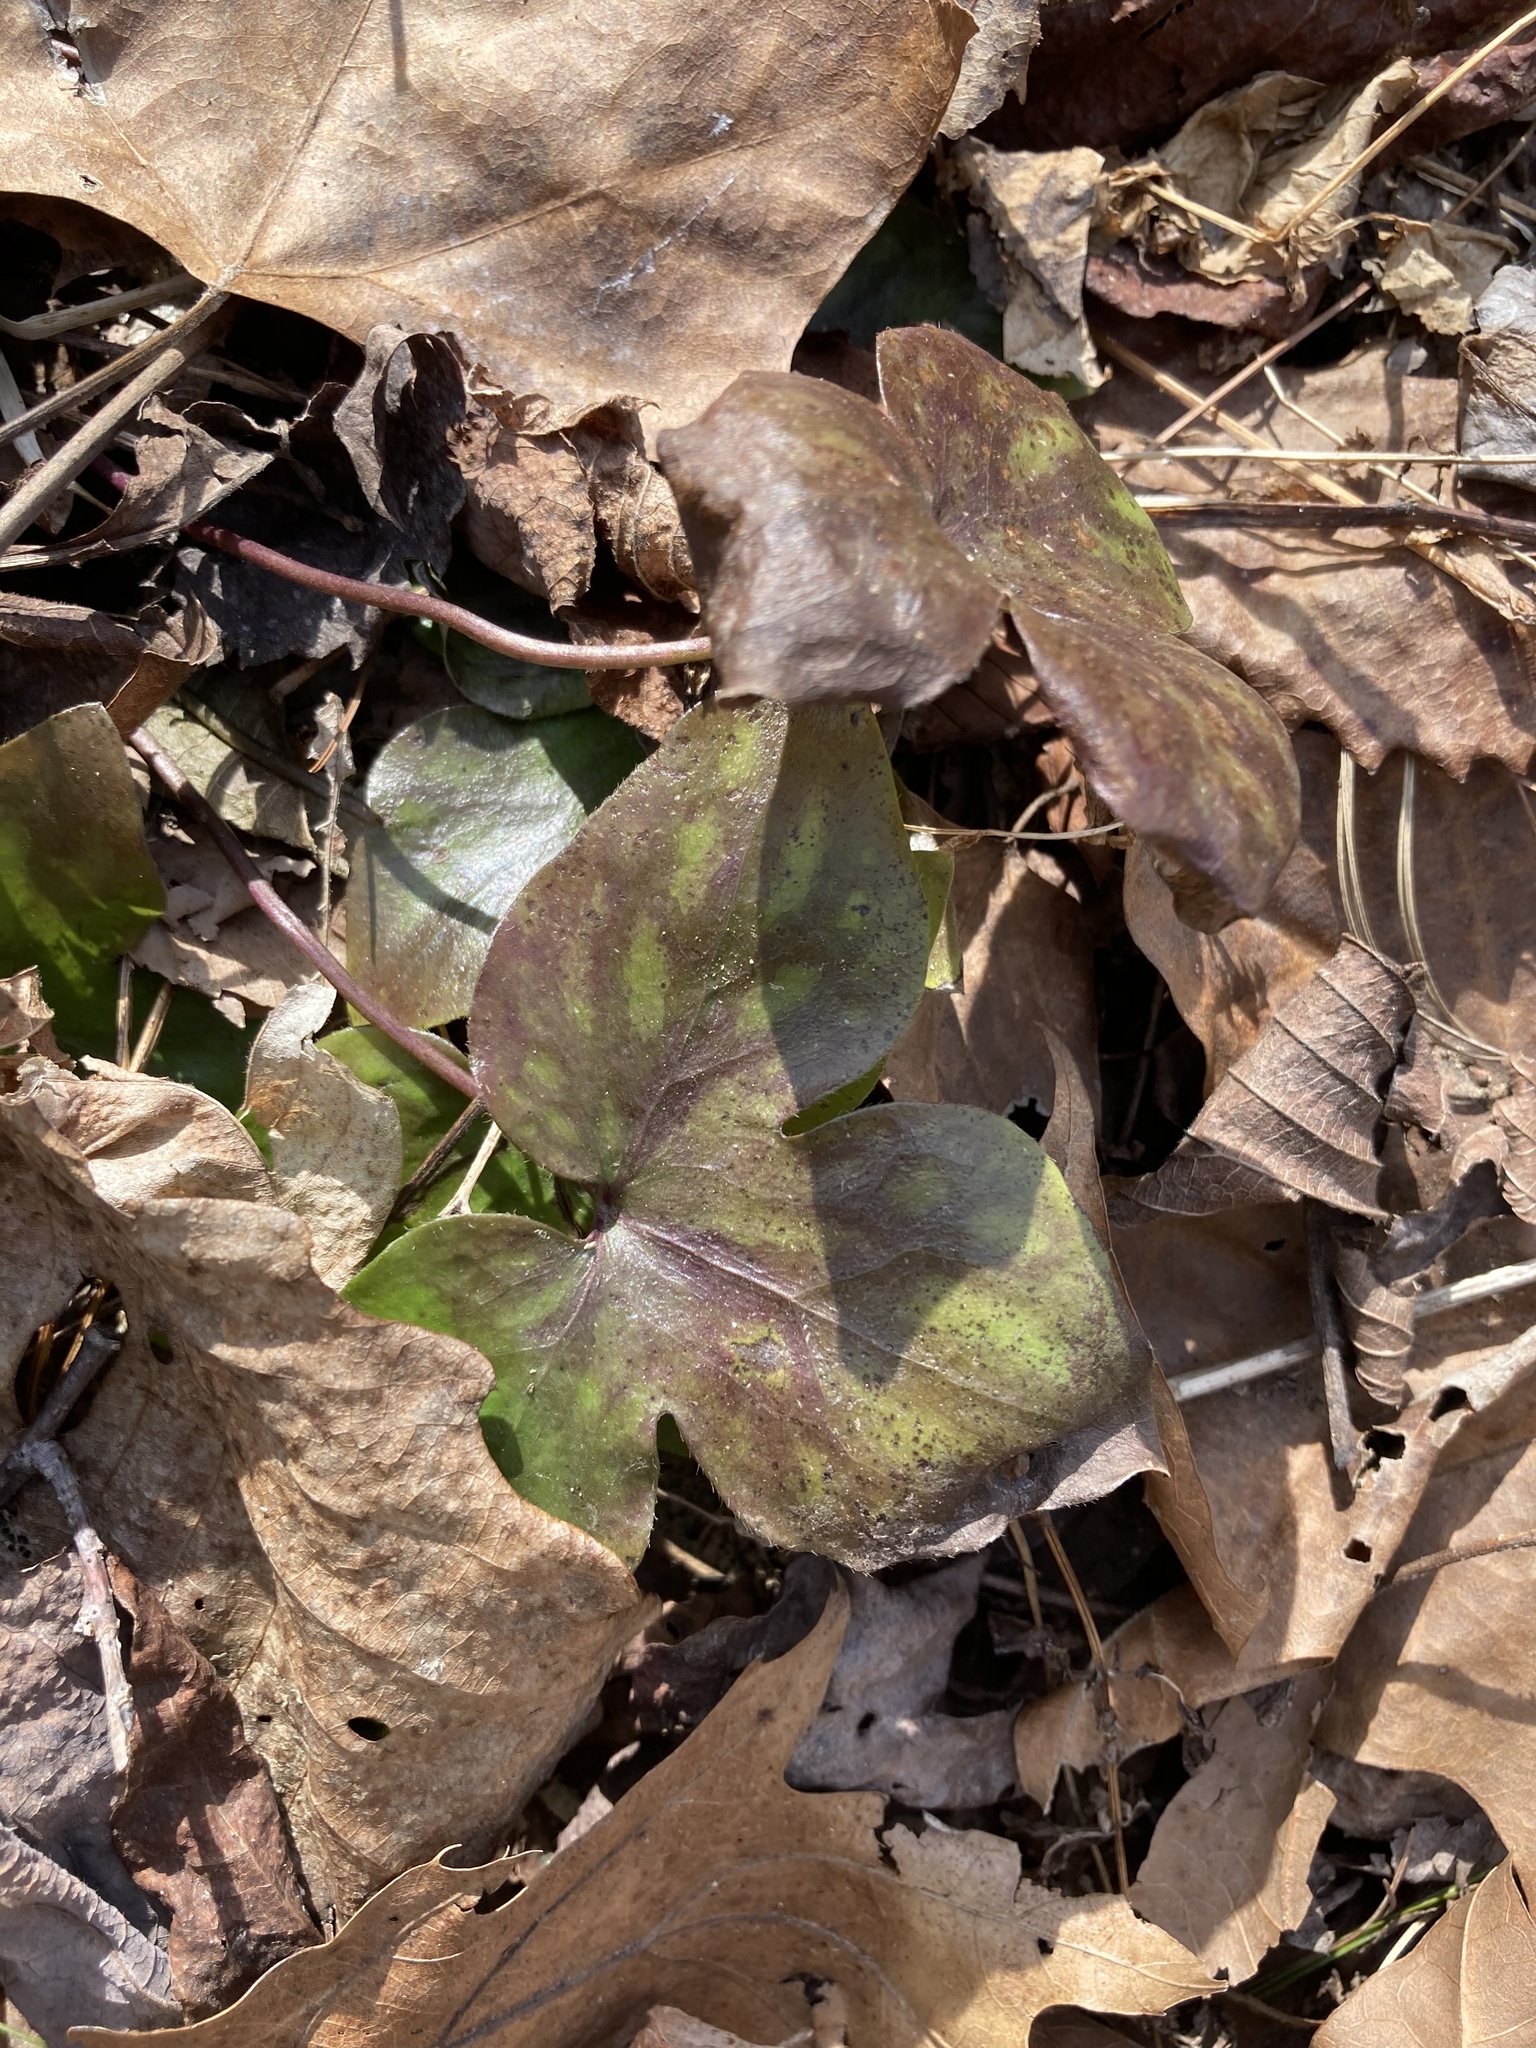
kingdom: Plantae
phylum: Tracheophyta
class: Magnoliopsida
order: Ranunculales
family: Ranunculaceae
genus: Hepatica
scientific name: Hepatica acutiloba
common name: Sharp-lobed hepatica
